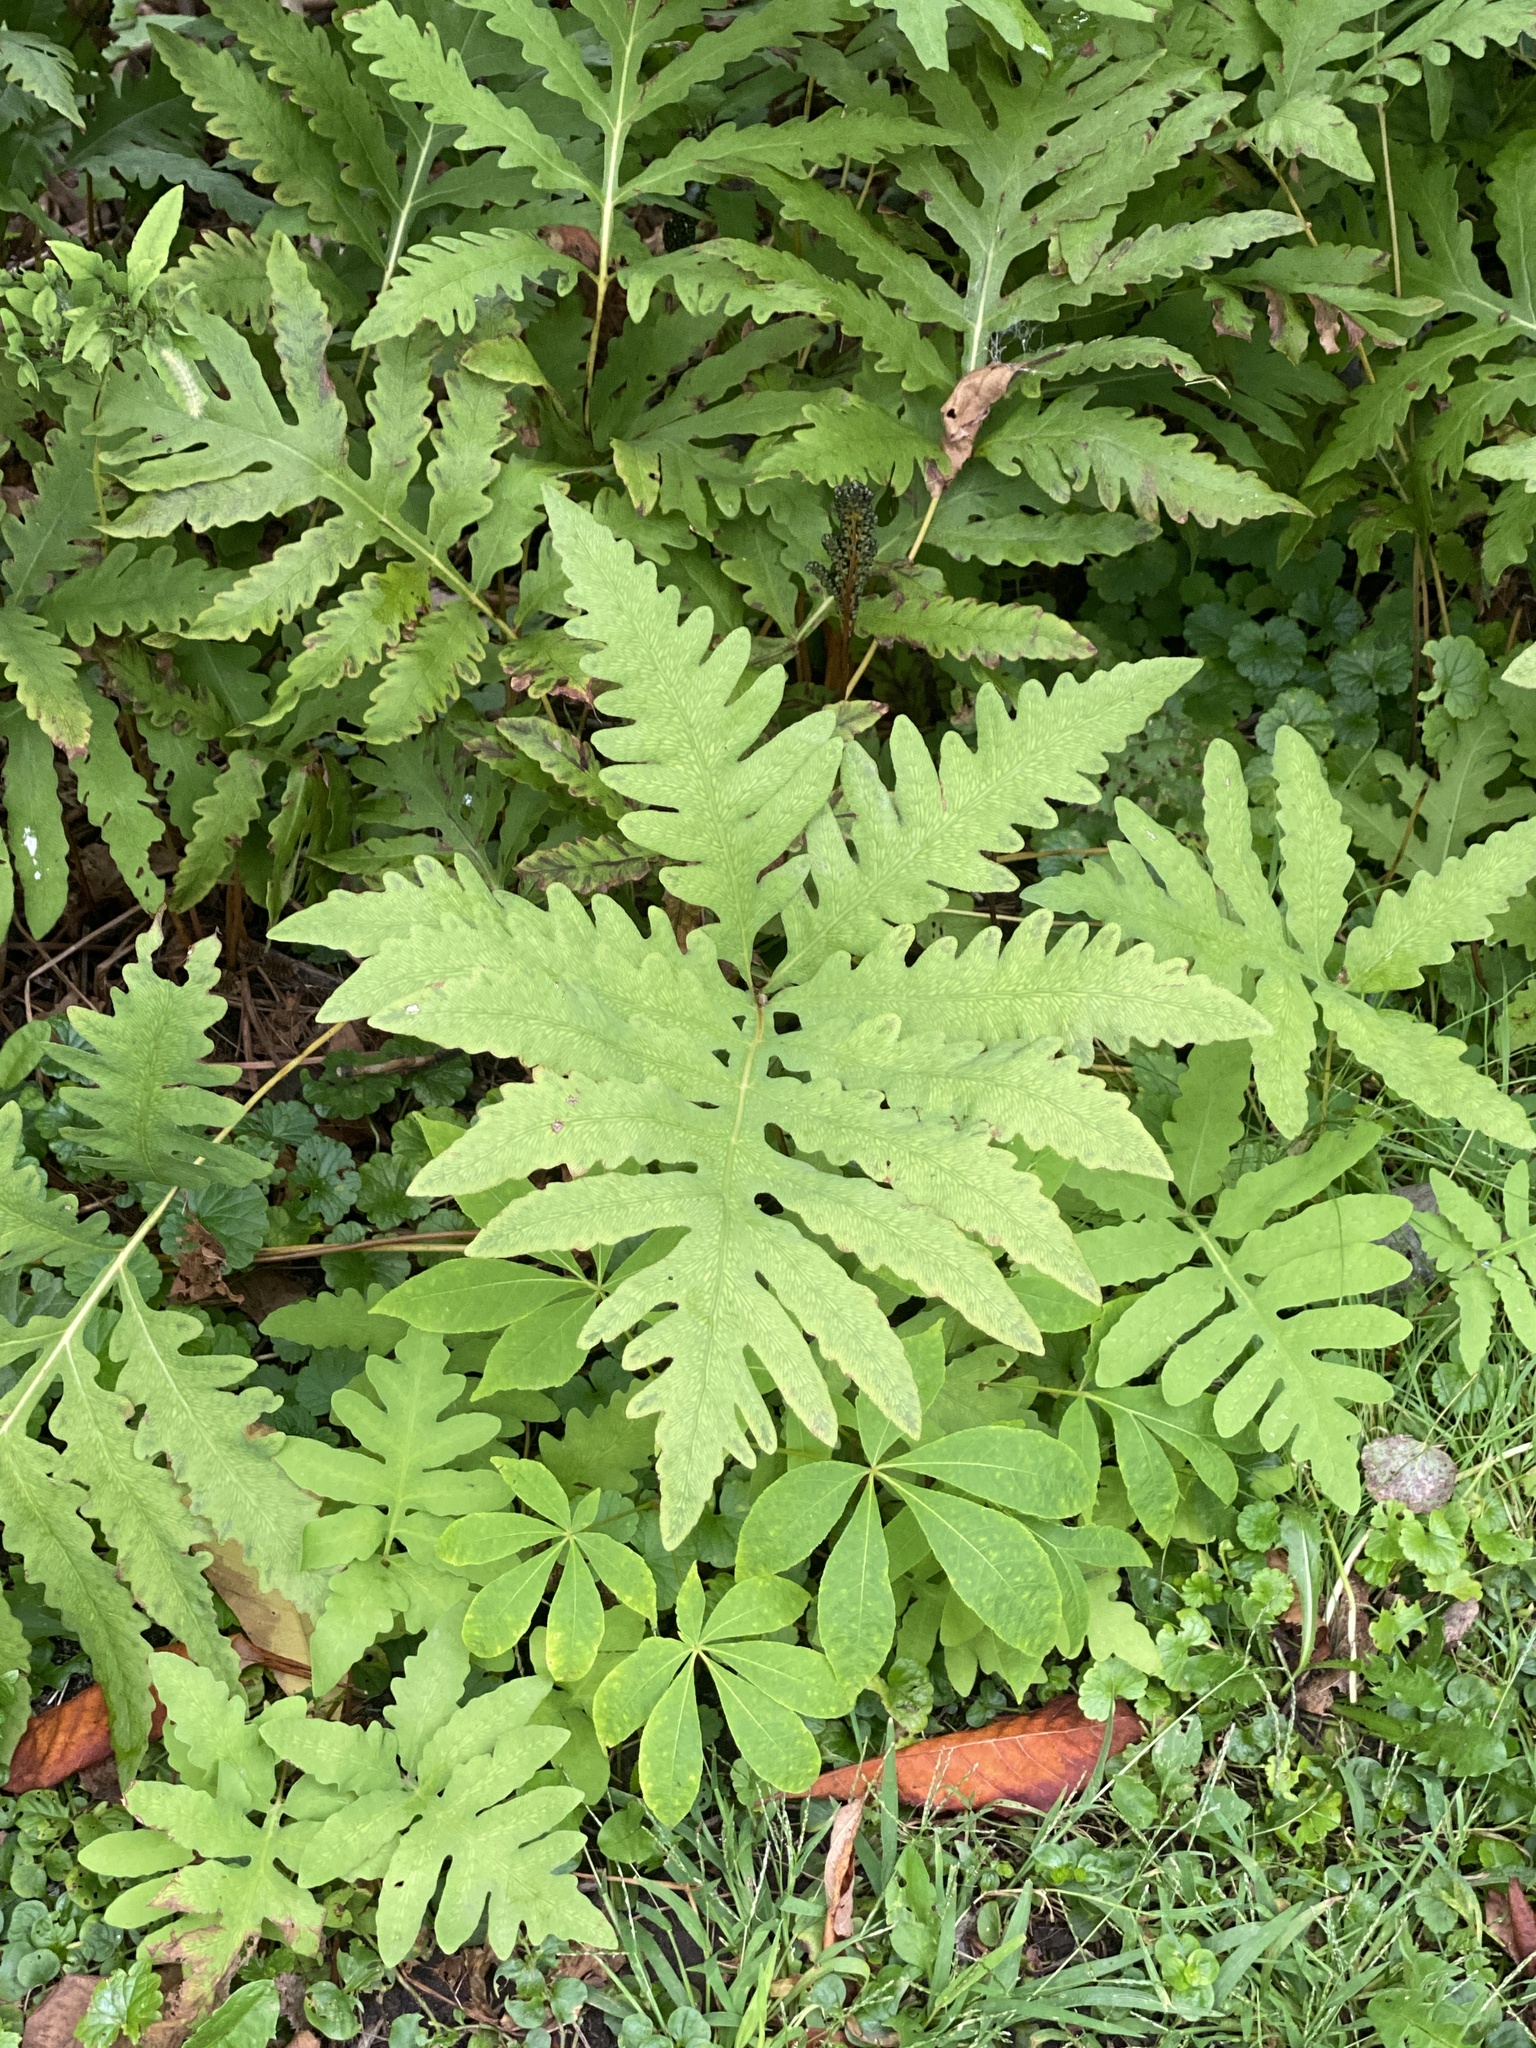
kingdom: Plantae
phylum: Tracheophyta
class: Polypodiopsida
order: Polypodiales
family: Onocleaceae
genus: Onoclea
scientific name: Onoclea sensibilis
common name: Sensitive fern
